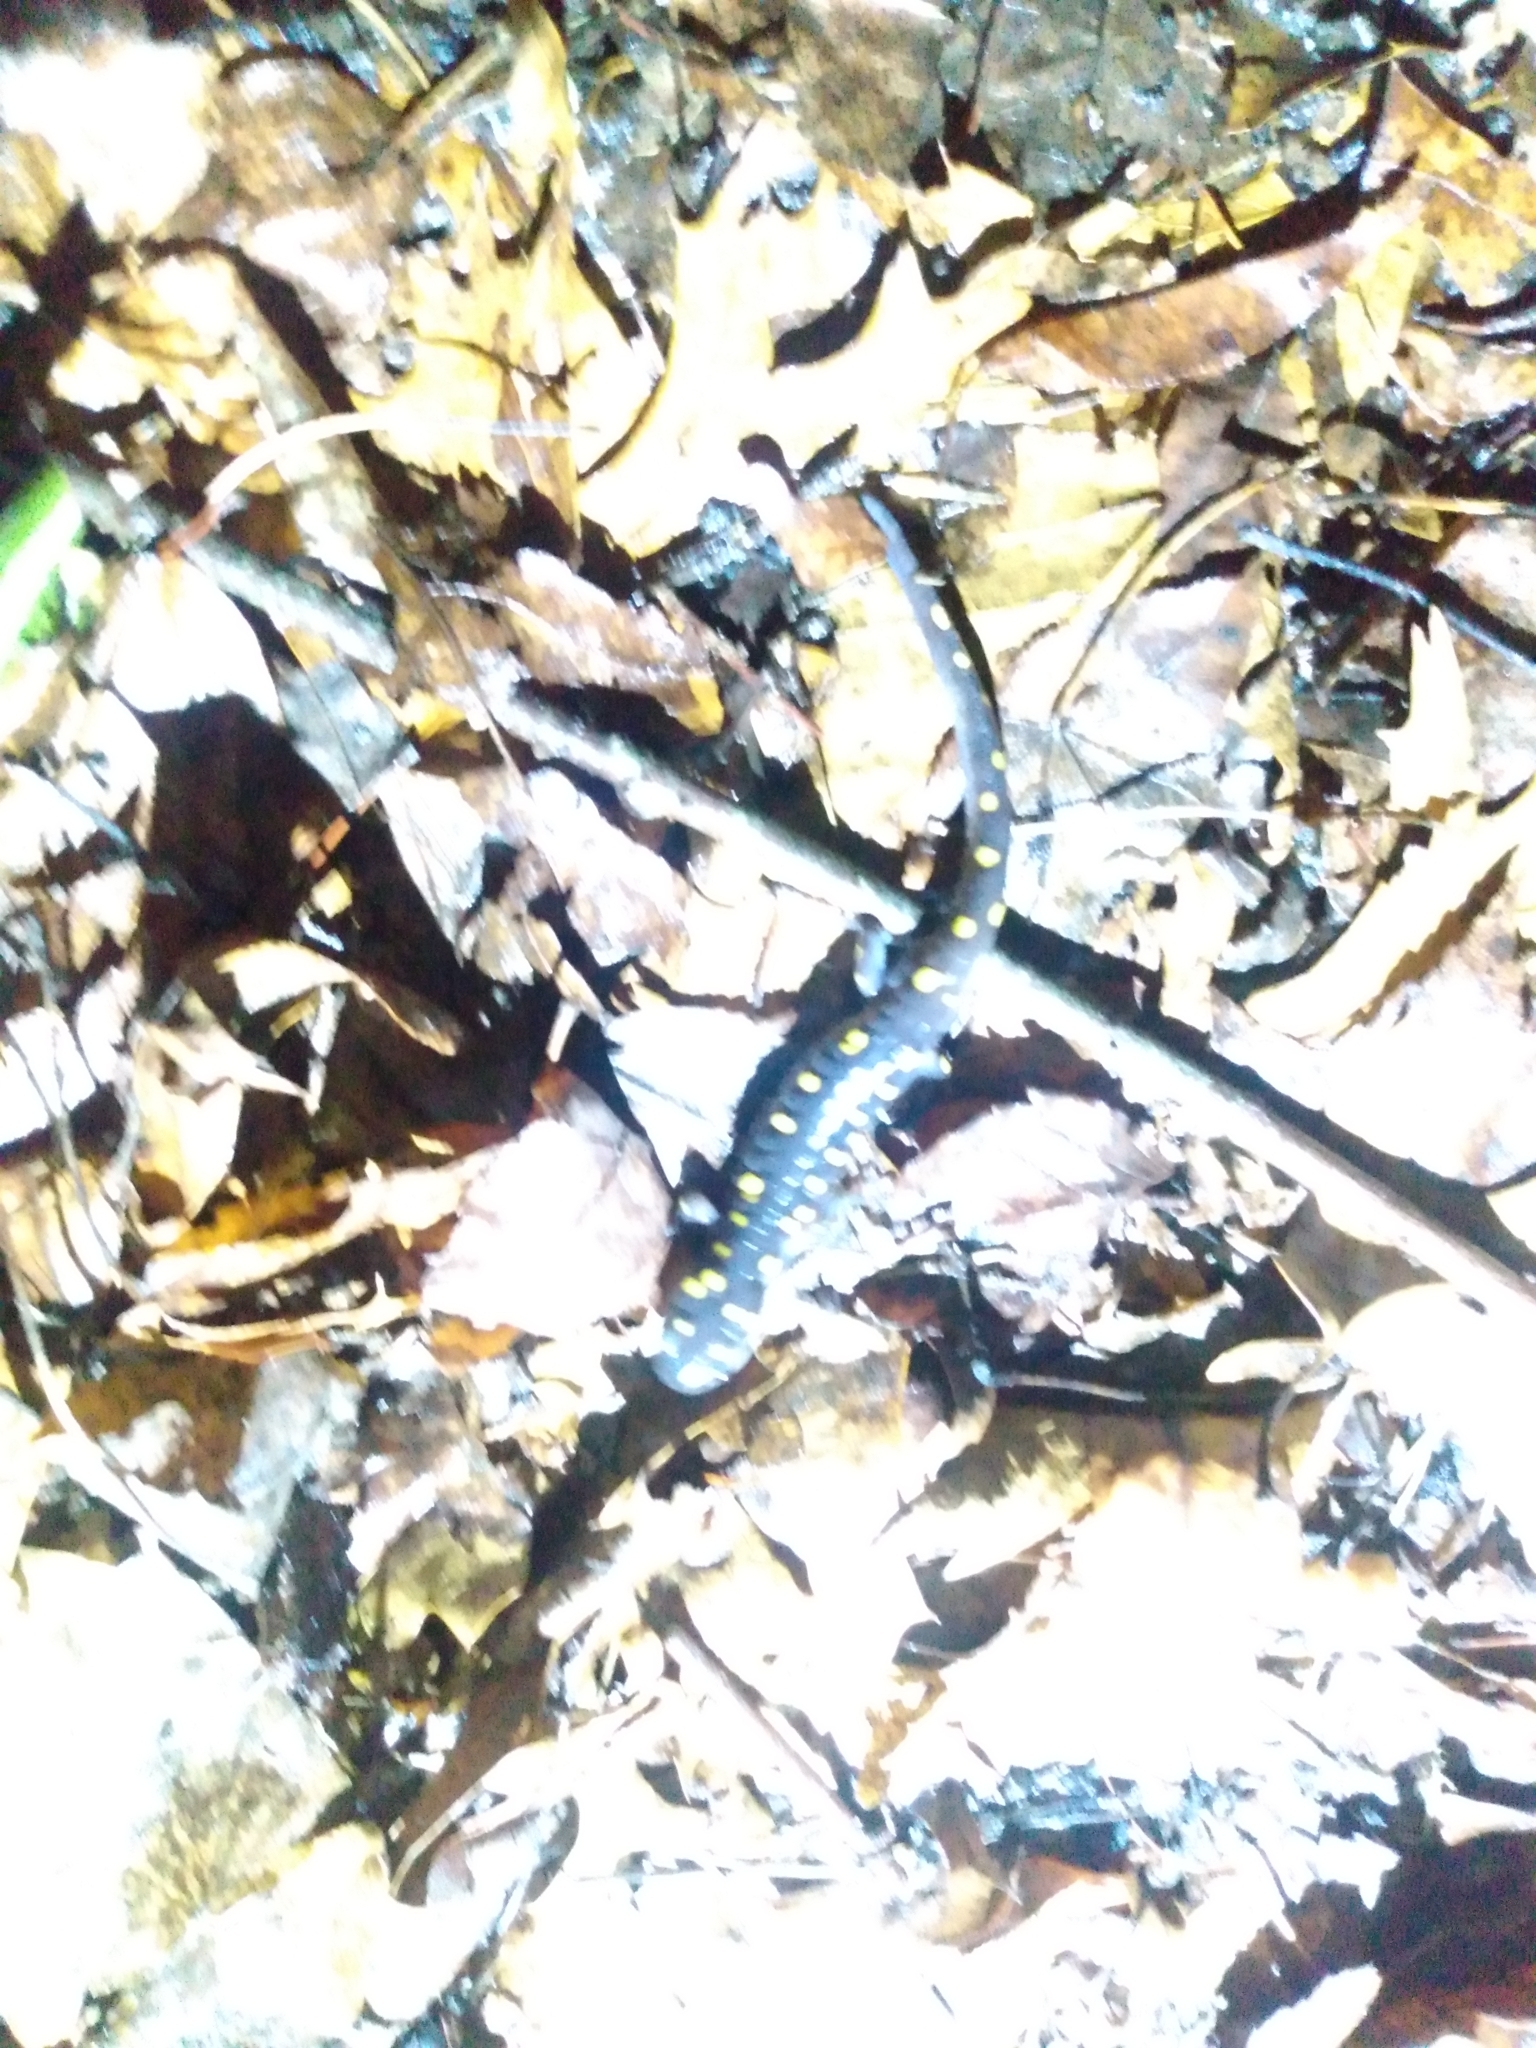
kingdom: Animalia
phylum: Chordata
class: Amphibia
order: Caudata
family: Ambystomatidae
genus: Ambystoma
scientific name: Ambystoma maculatum
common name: Spotted salamander
